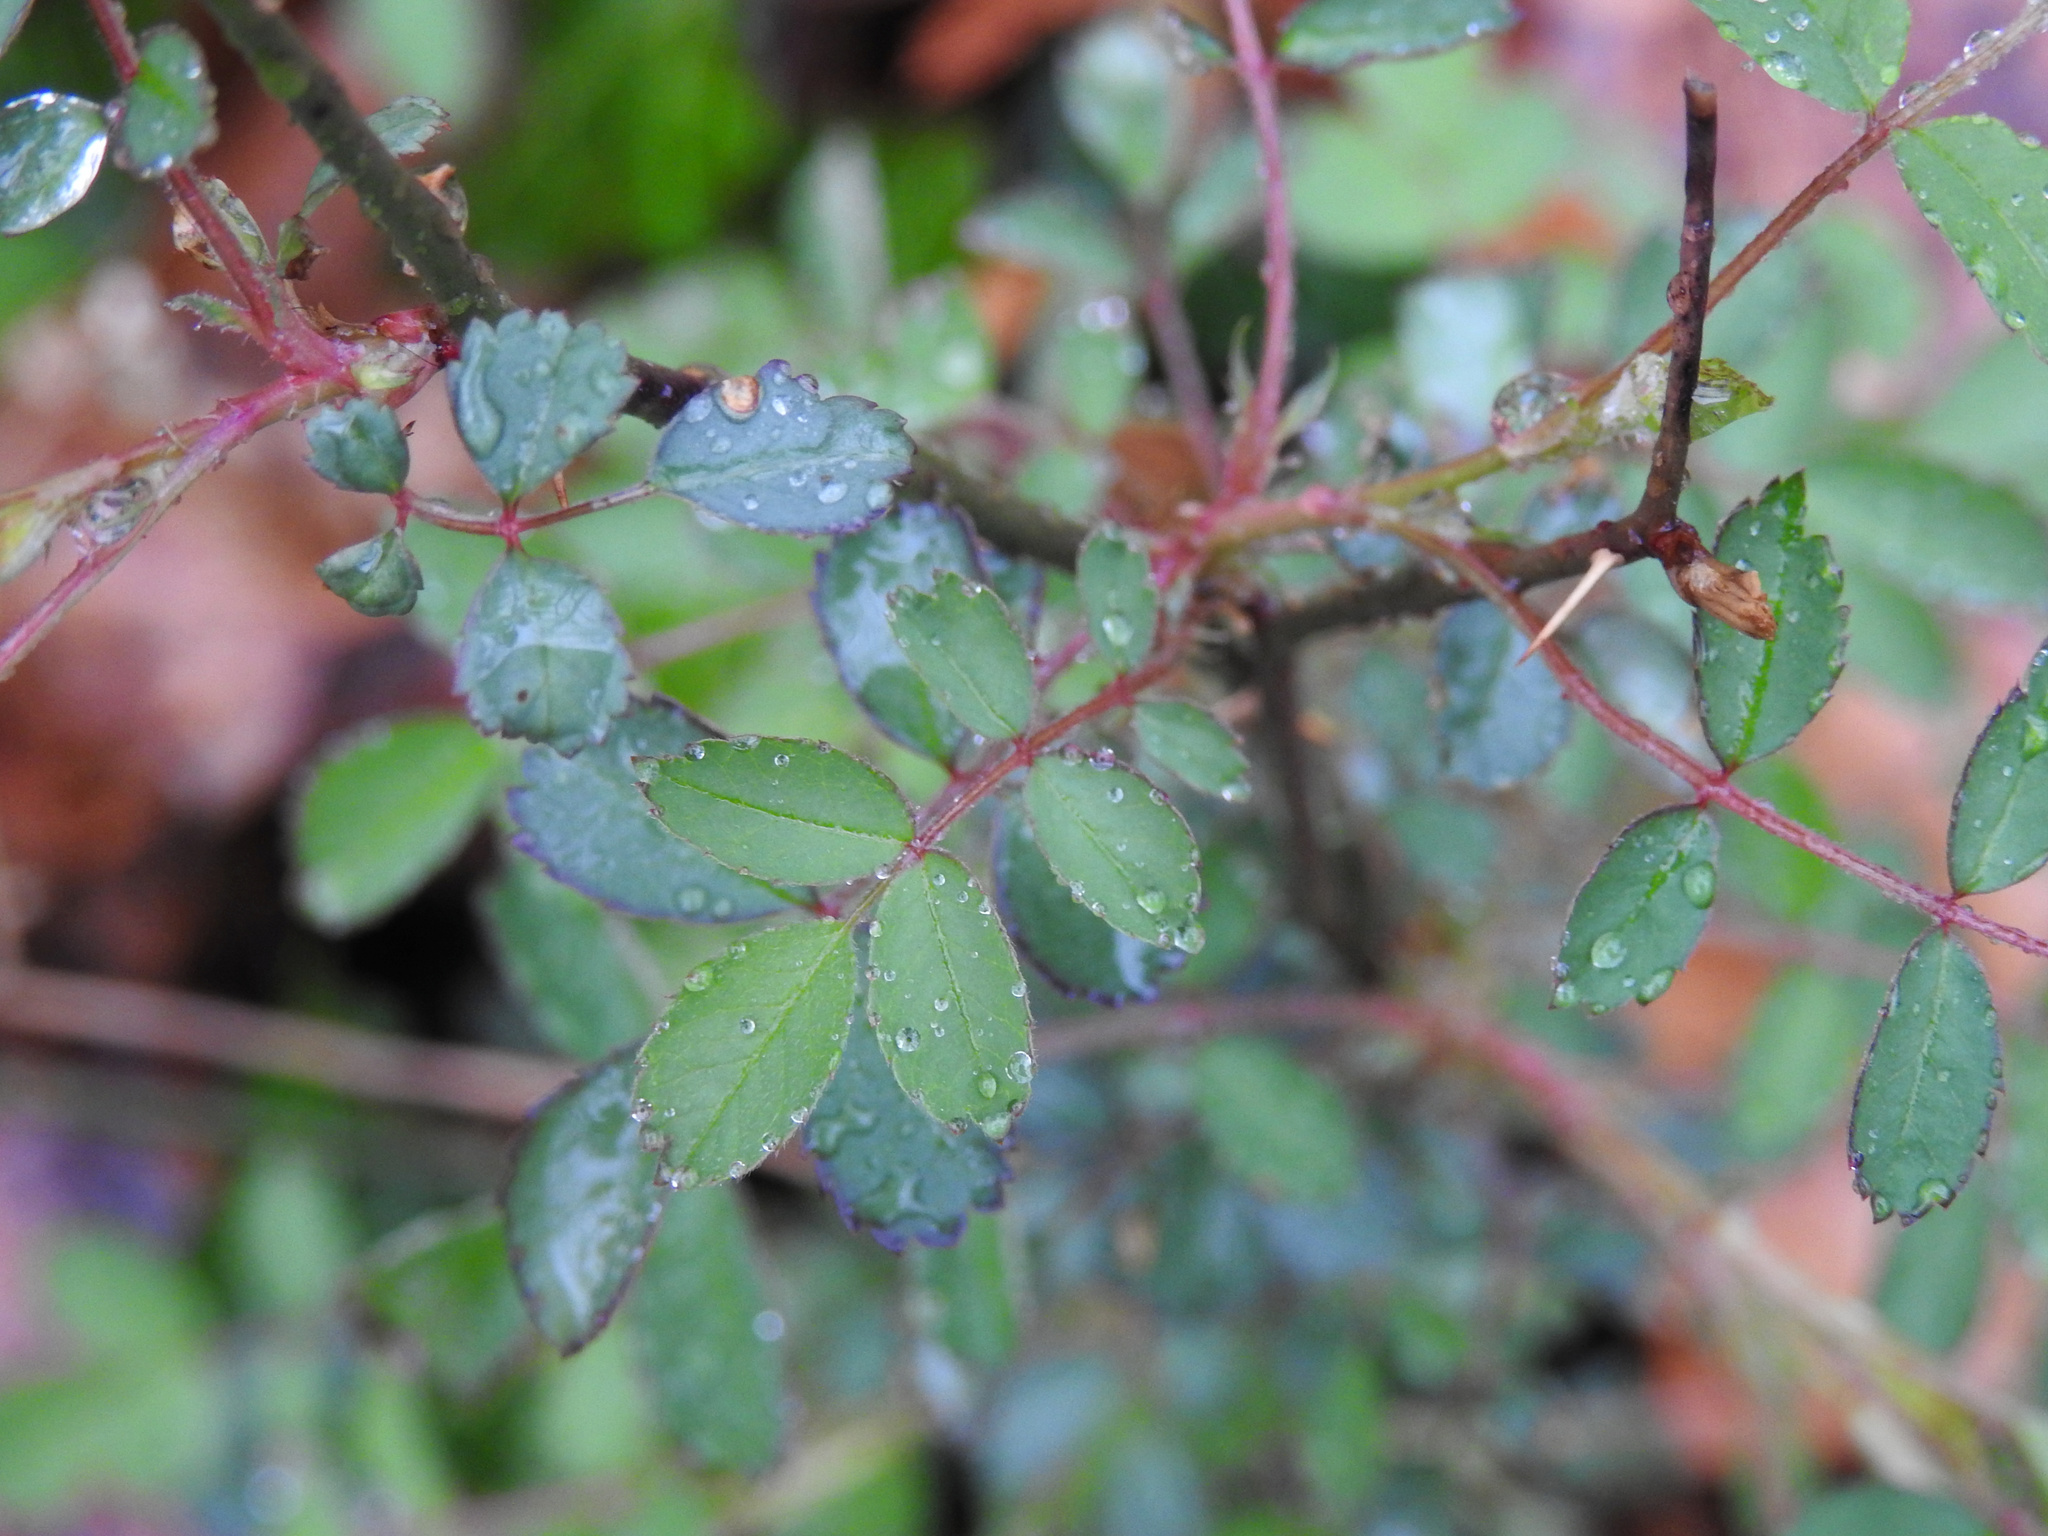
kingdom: Plantae
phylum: Tracheophyta
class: Magnoliopsida
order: Rosales
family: Rosaceae
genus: Rosa
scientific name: Rosa multiflora
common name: Multiflora rose
